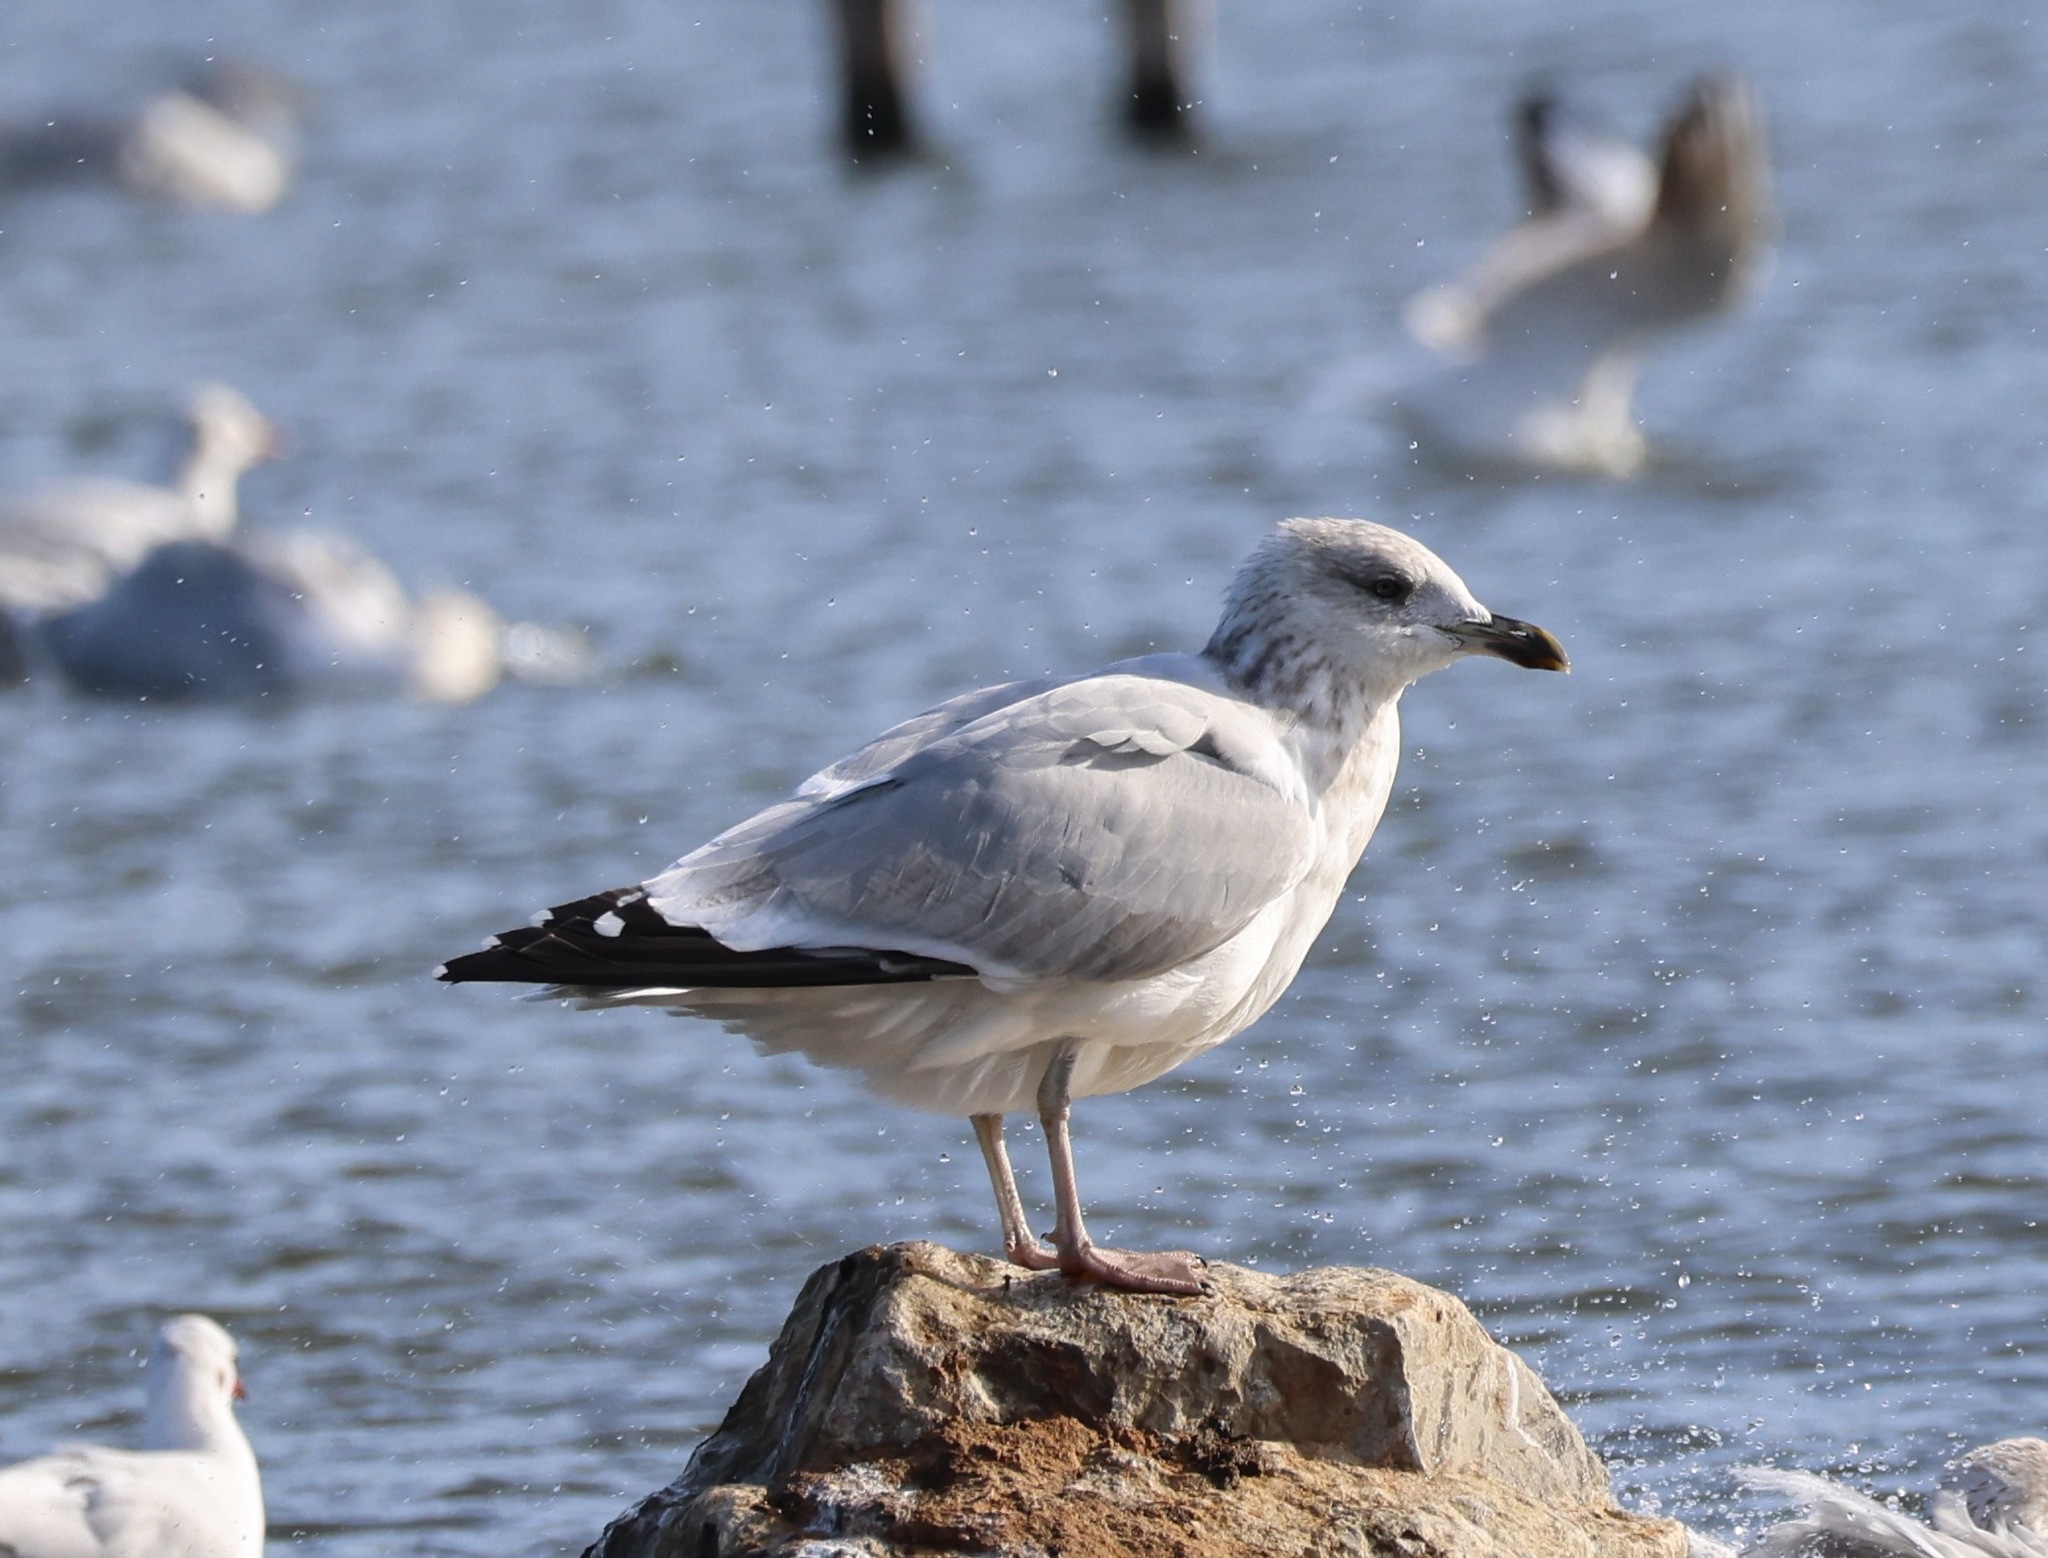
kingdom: Animalia
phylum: Chordata
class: Aves
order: Charadriiformes
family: Laridae
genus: Larus
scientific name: Larus argentatus
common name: Herring gull
